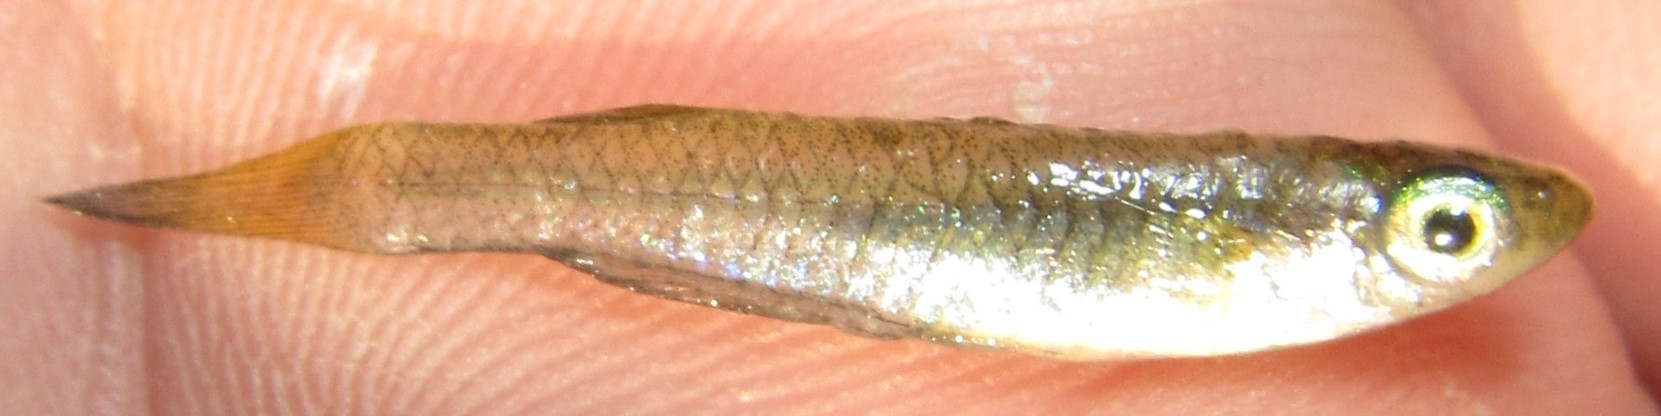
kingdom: Animalia
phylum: Chordata
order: Cyprinodontiformes
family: Poeciliidae
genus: Micropanchax
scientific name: Micropanchax johnstoni
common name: Johnston's topminnow
